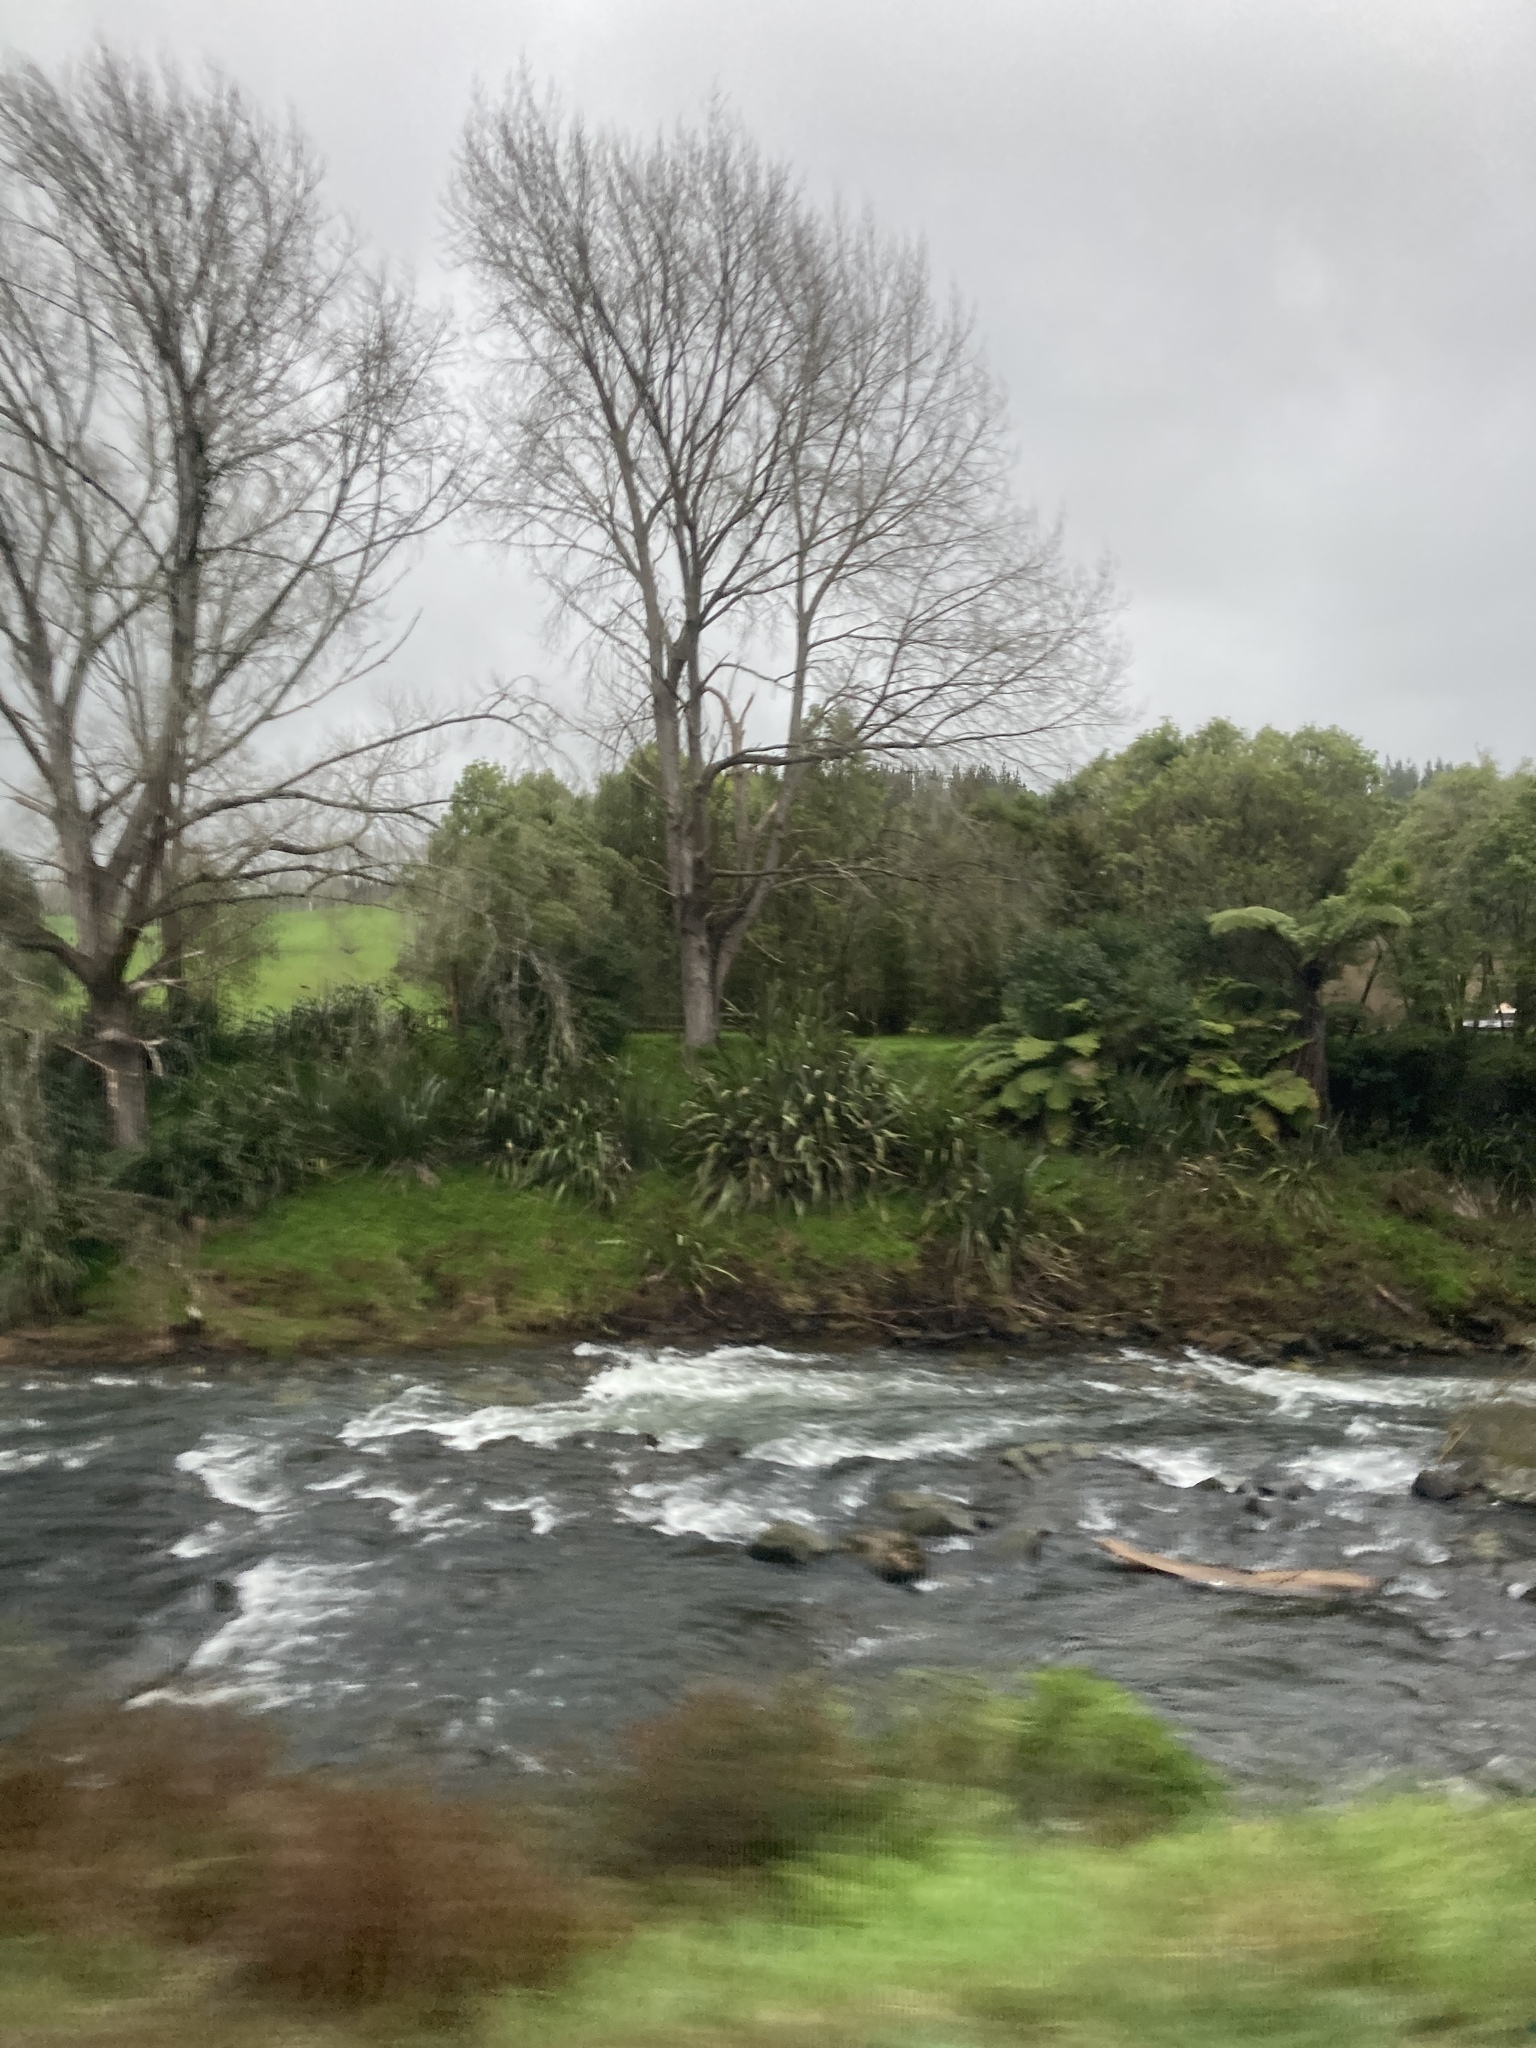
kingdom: Plantae
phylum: Tracheophyta
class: Liliopsida
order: Asparagales
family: Asphodelaceae
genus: Phormium
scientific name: Phormium tenax
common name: New zealand flax
